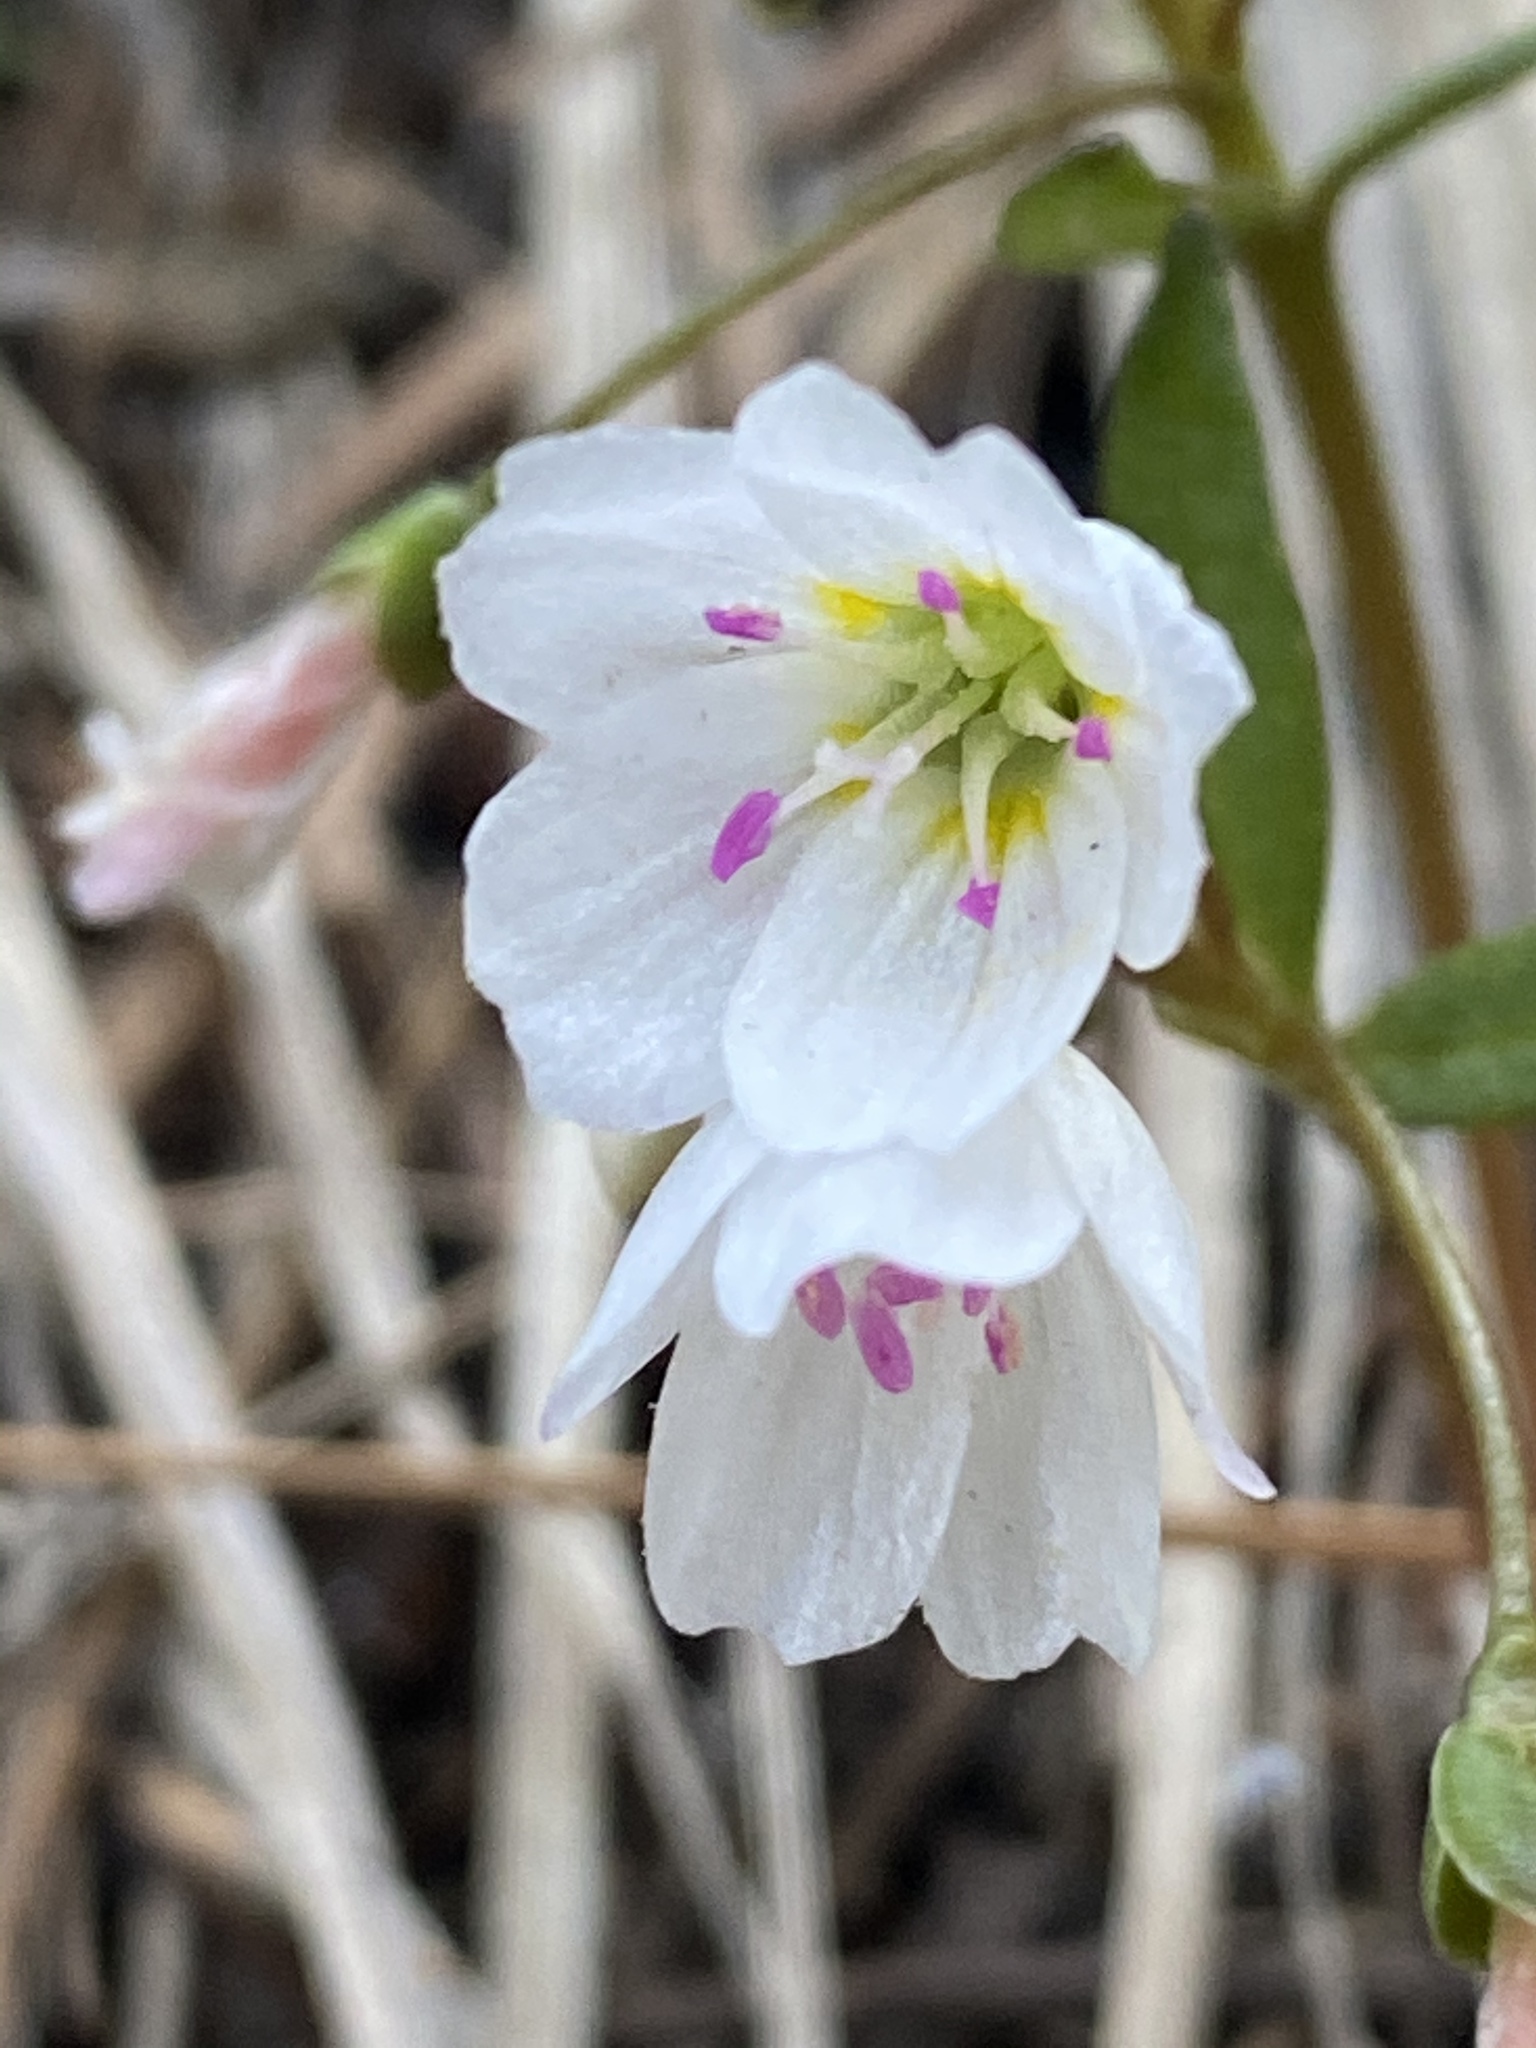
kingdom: Plantae
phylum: Tracheophyta
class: Magnoliopsida
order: Caryophyllales
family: Montiaceae
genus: Claytonia
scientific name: Claytonia lanceolata
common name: Western spring-beauty
